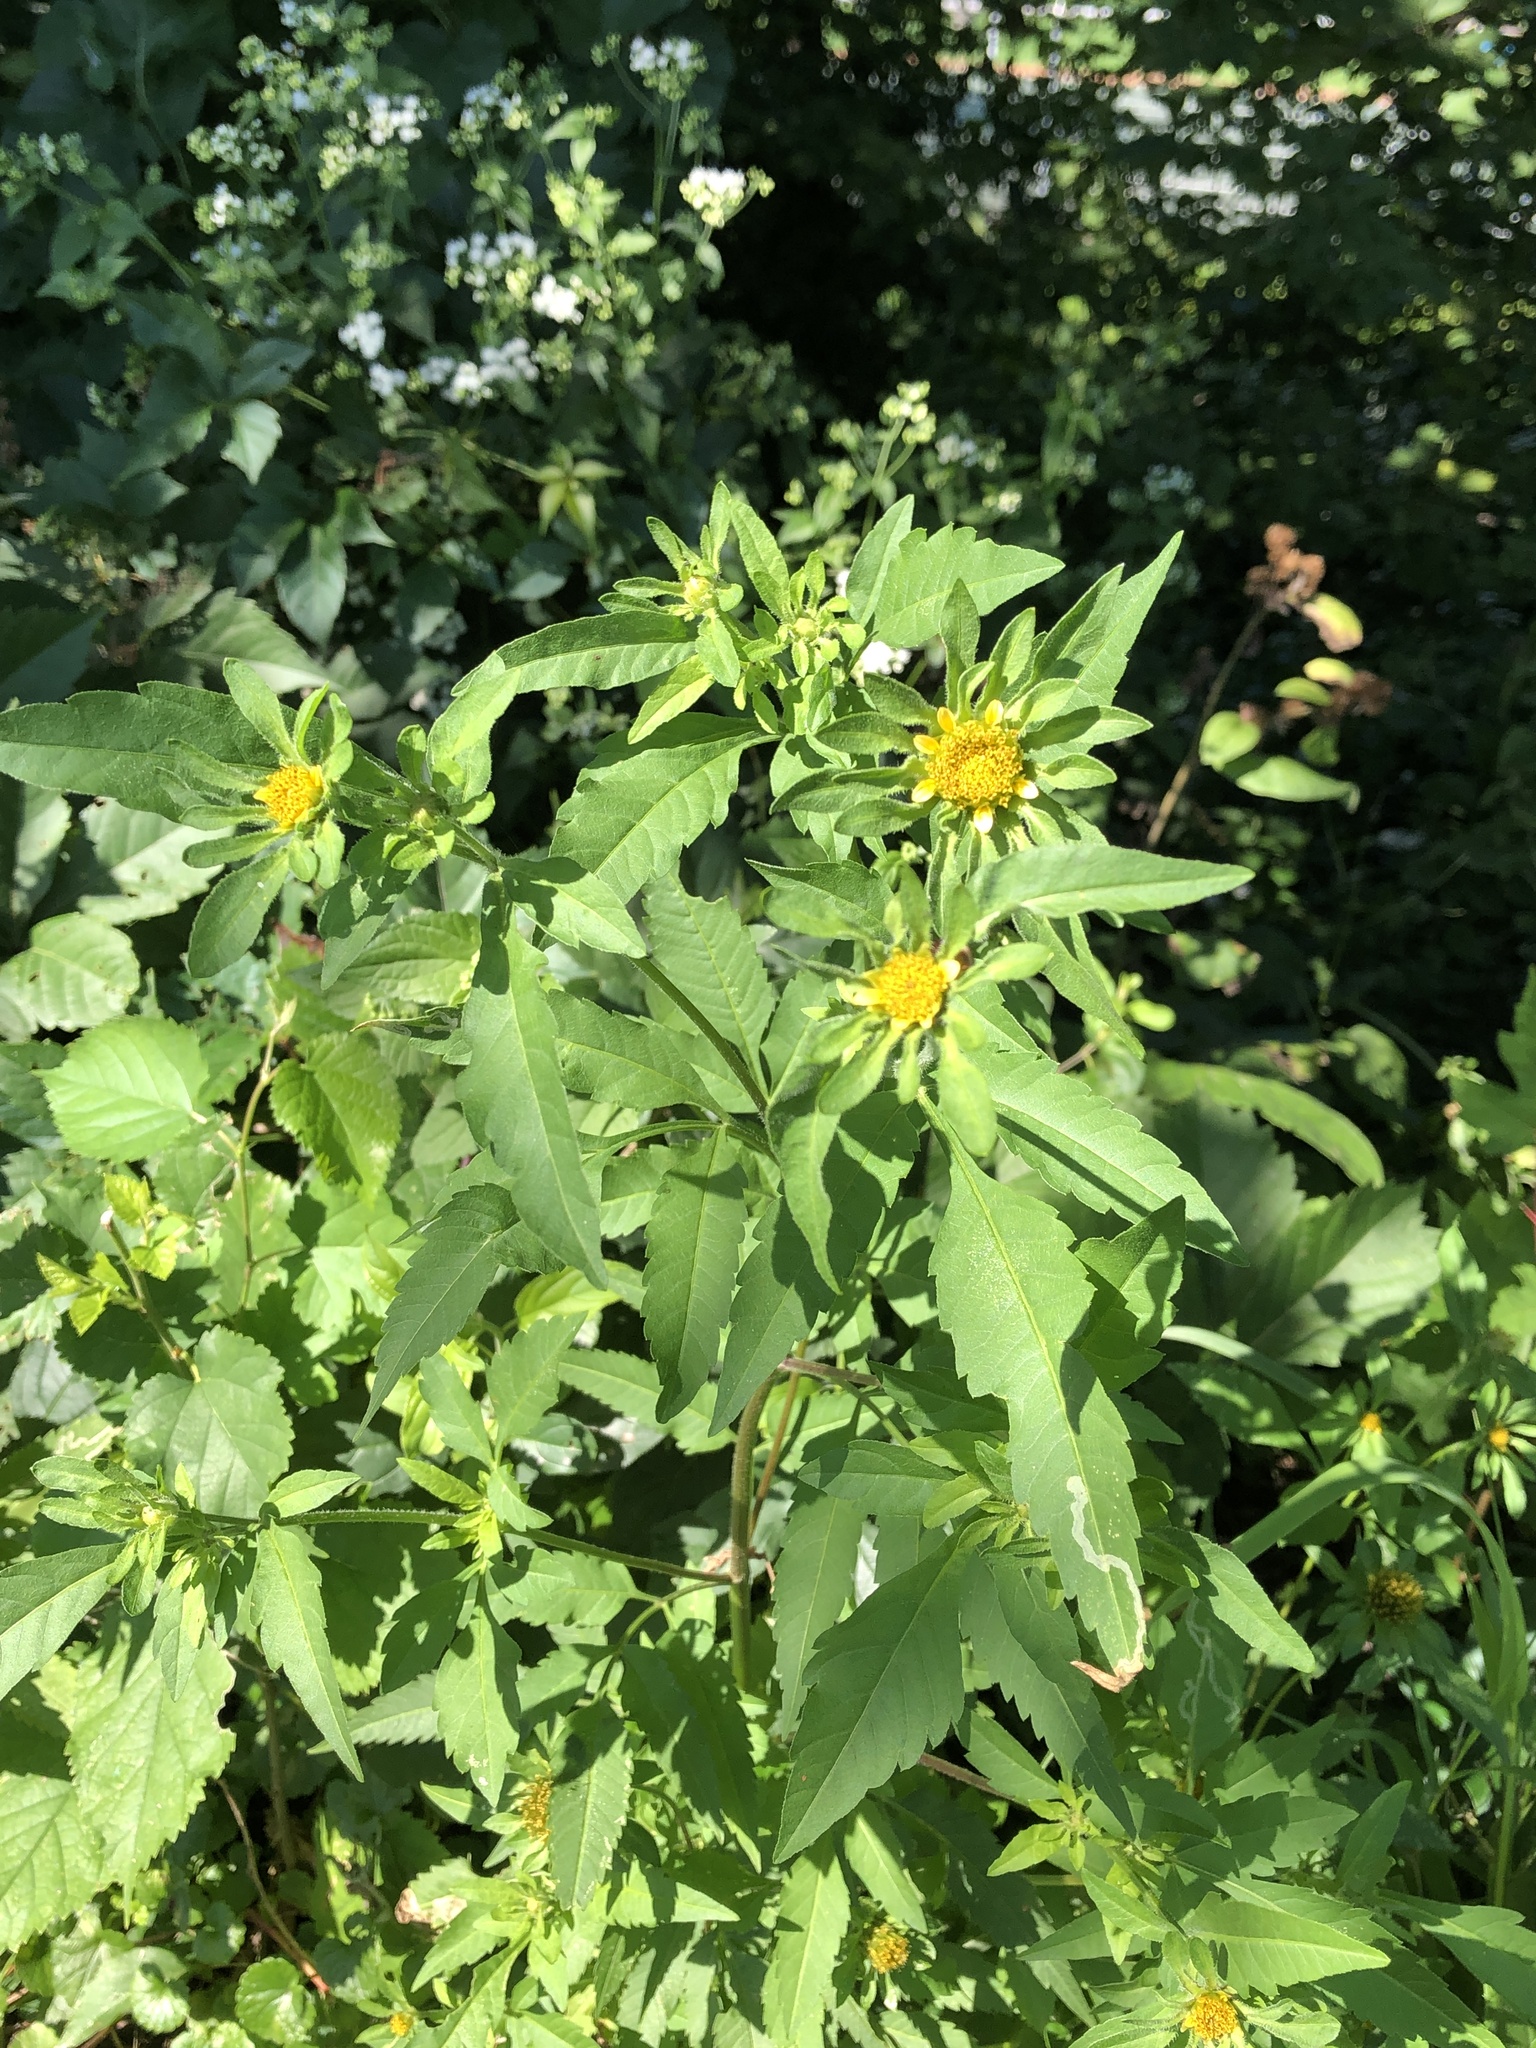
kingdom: Plantae
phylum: Tracheophyta
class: Magnoliopsida
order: Asterales
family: Asteraceae
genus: Bidens
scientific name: Bidens vulgata
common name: Tall beggarticks
